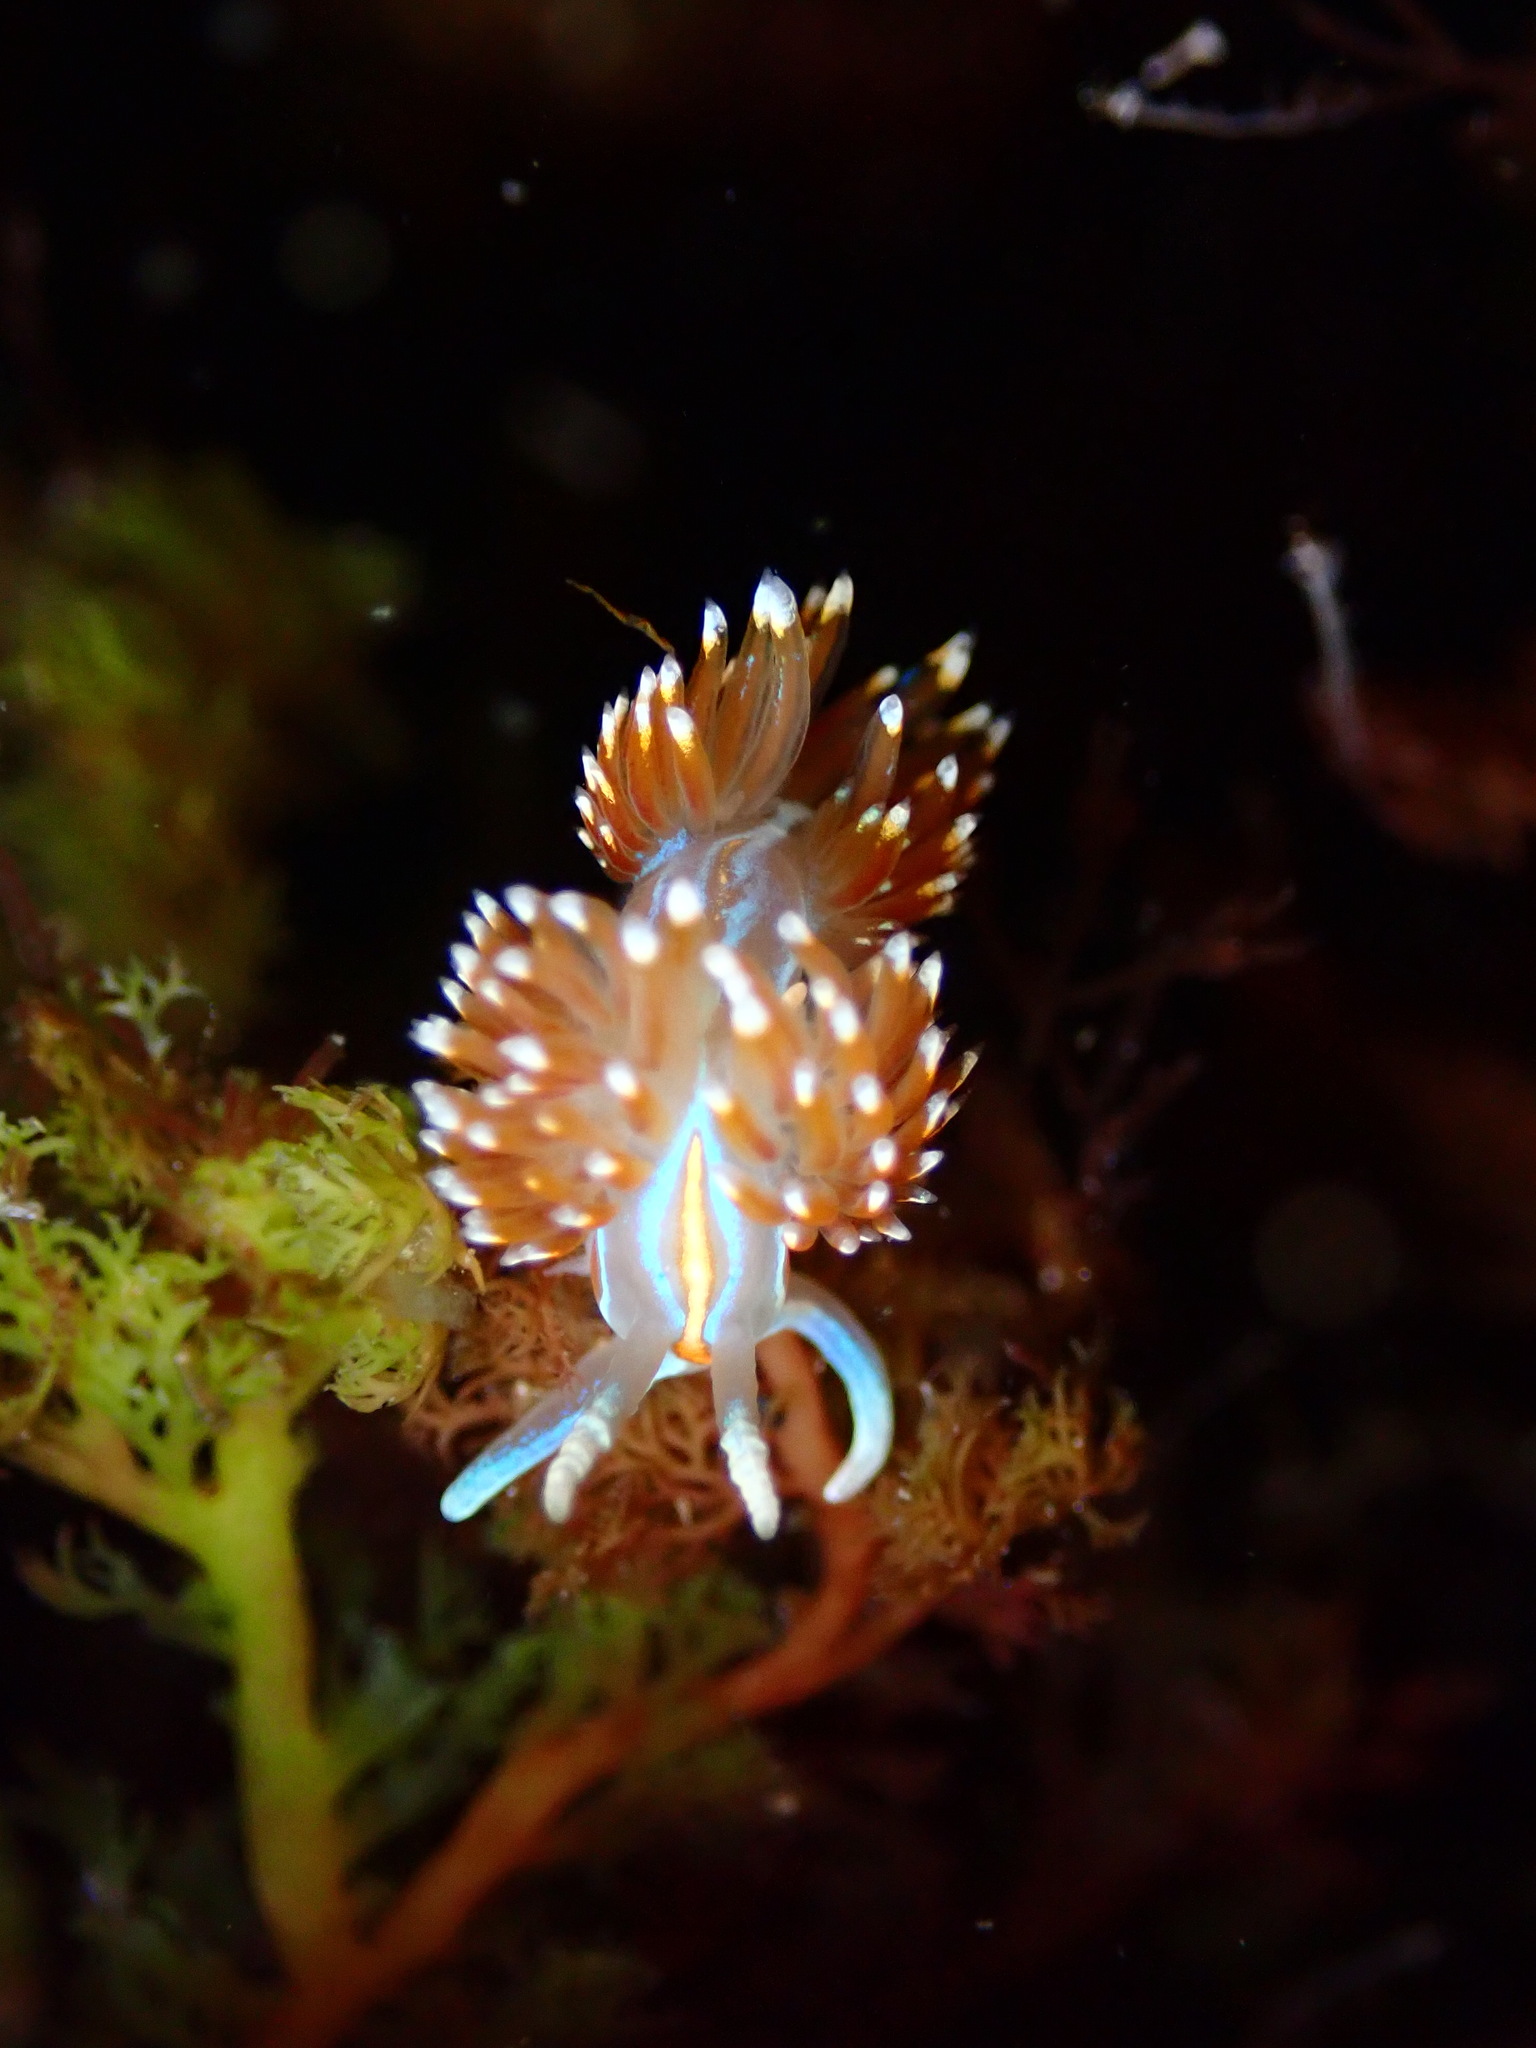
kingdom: Animalia
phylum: Mollusca
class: Gastropoda
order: Nudibranchia
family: Myrrhinidae
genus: Hermissenda
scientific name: Hermissenda opalescens
